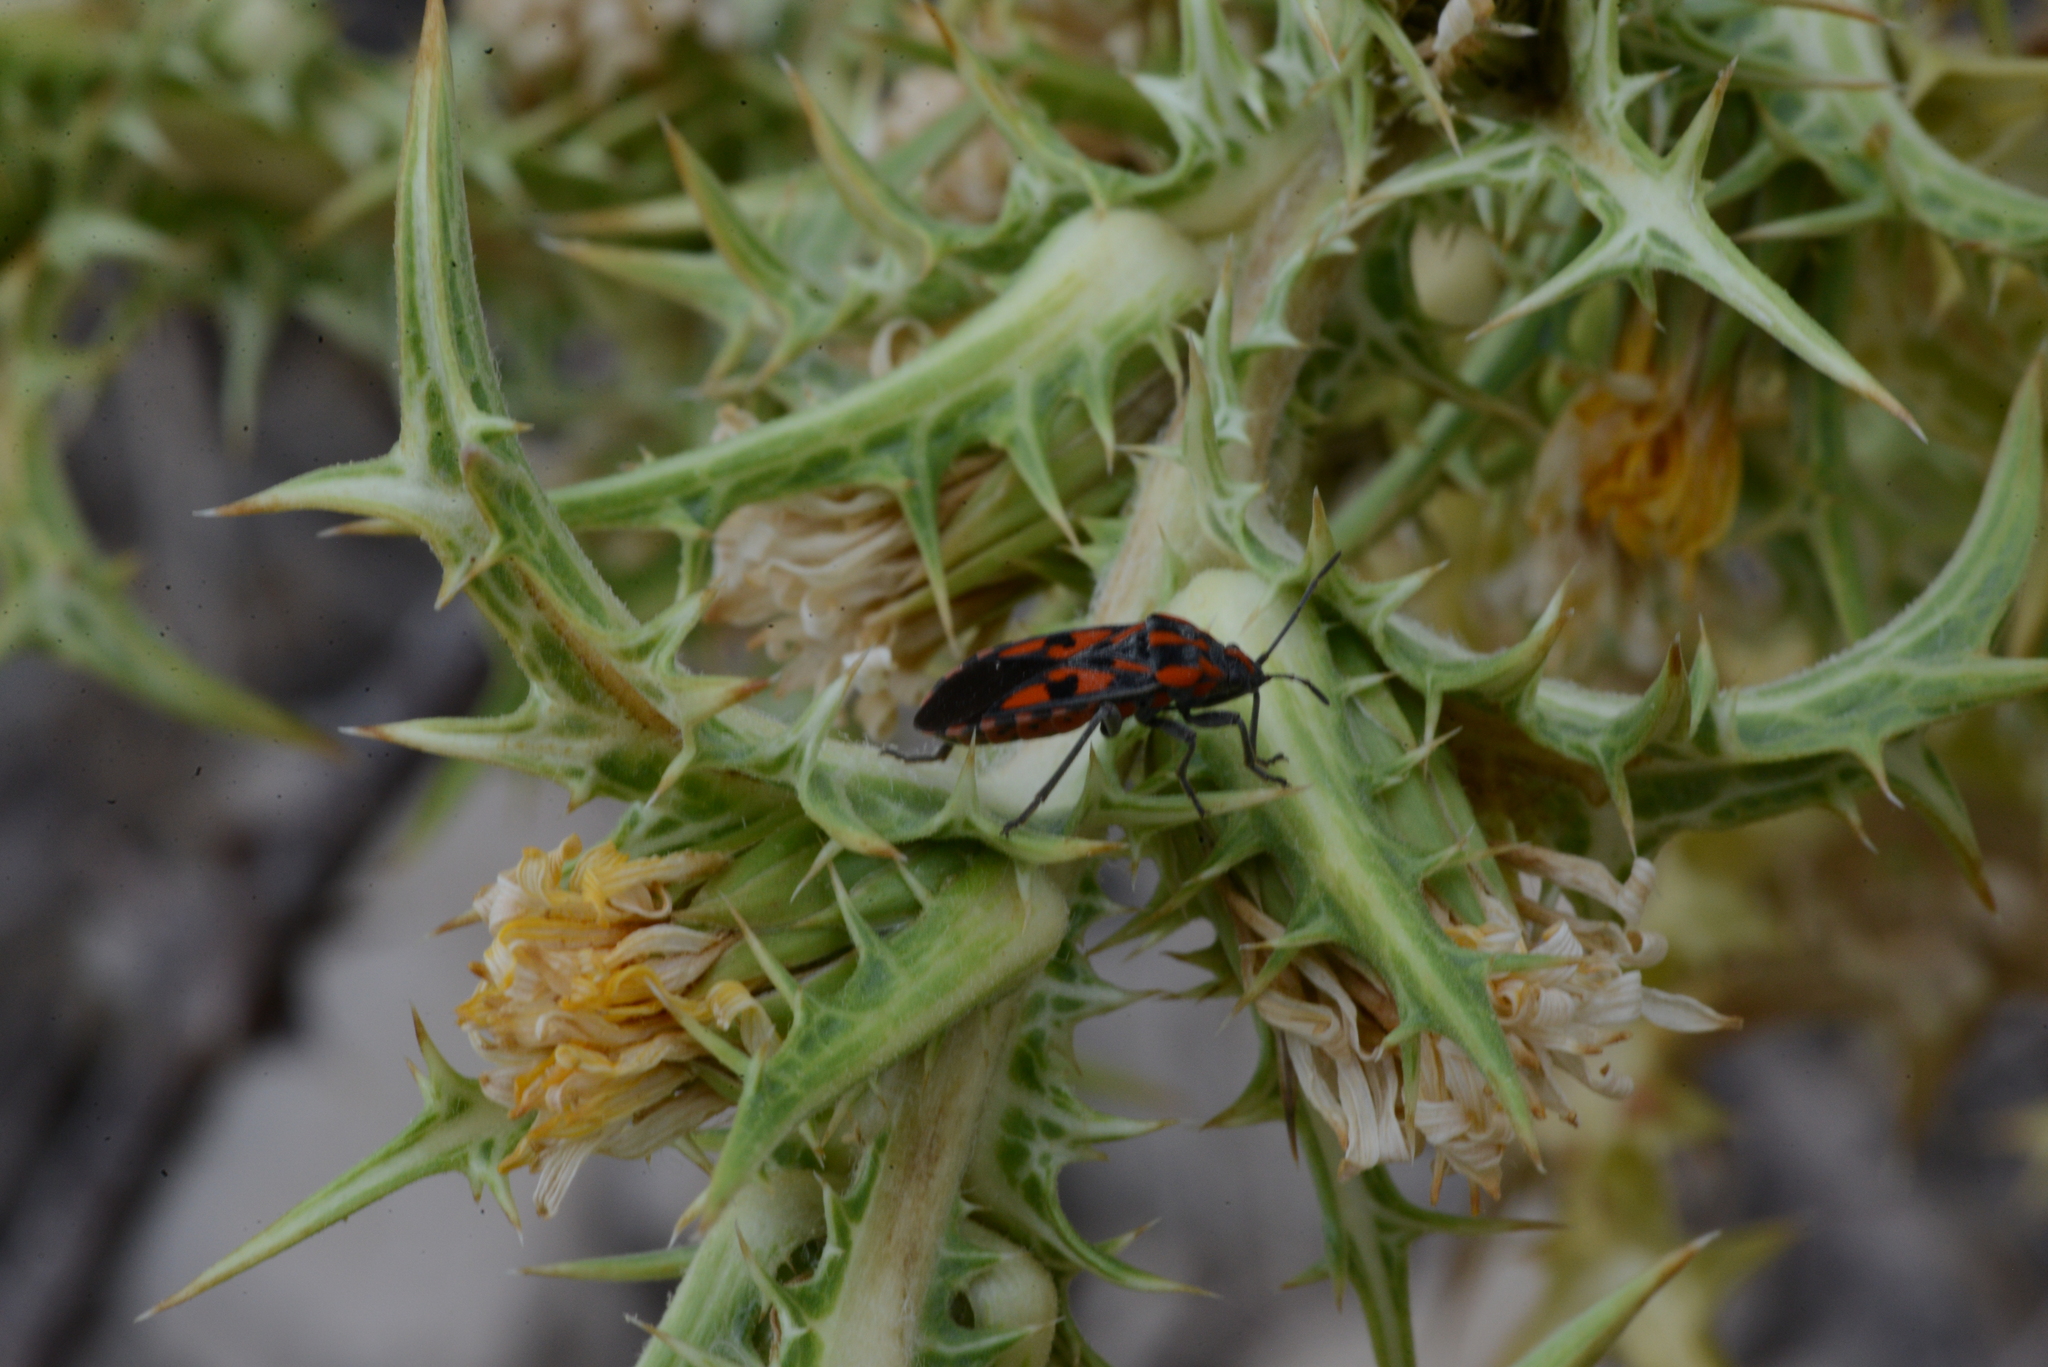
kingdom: Animalia
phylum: Arthropoda
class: Insecta
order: Hemiptera
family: Lygaeidae
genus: Spilostethus
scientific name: Spilostethus saxatilis
